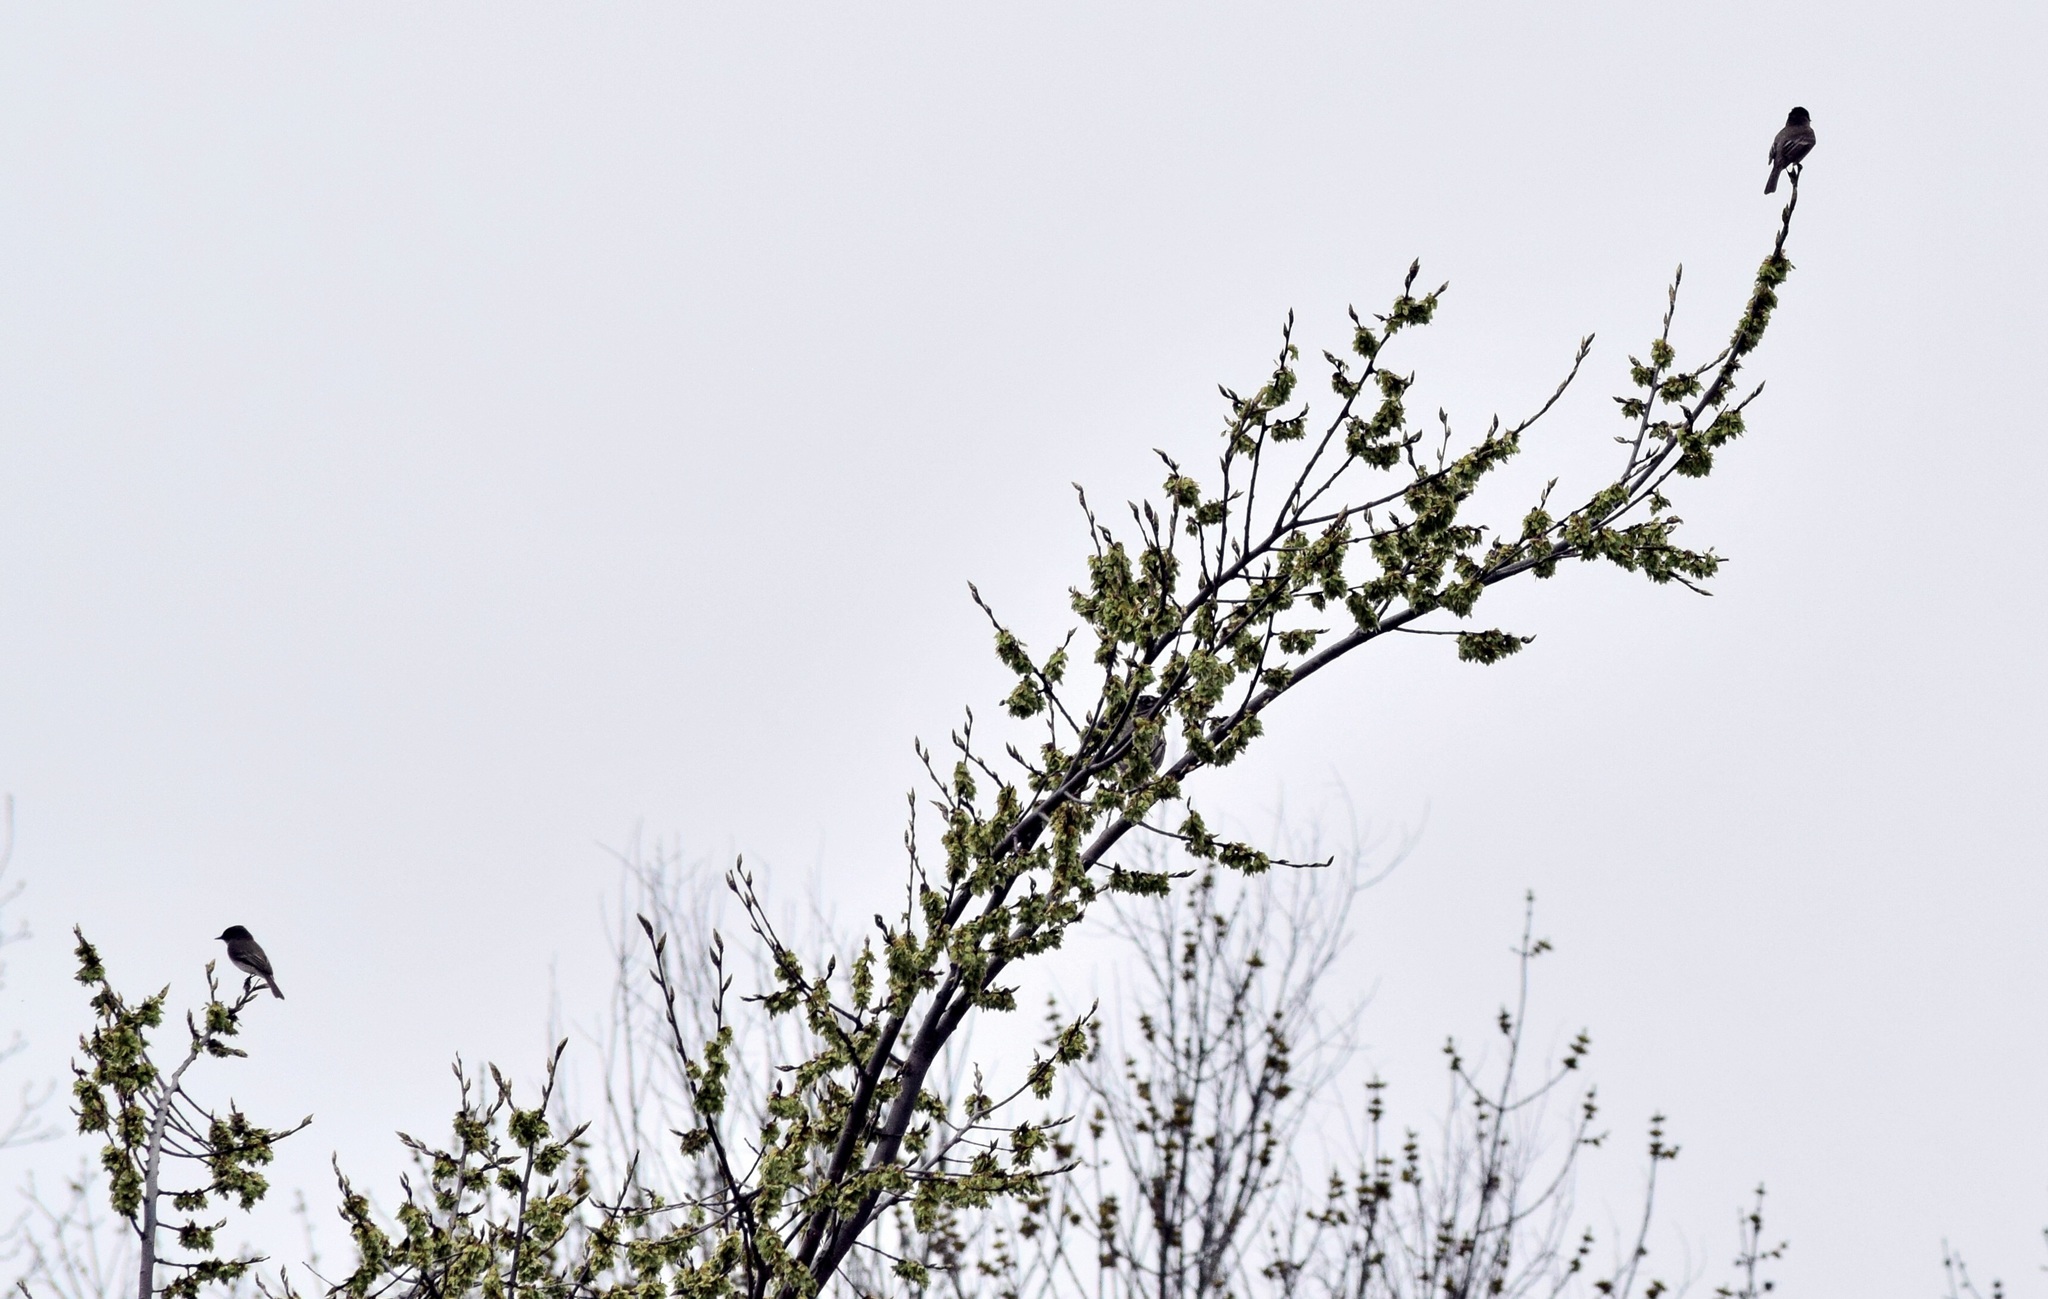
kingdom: Animalia
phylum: Chordata
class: Aves
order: Passeriformes
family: Tyrannidae
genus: Sayornis
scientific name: Sayornis phoebe
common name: Eastern phoebe
